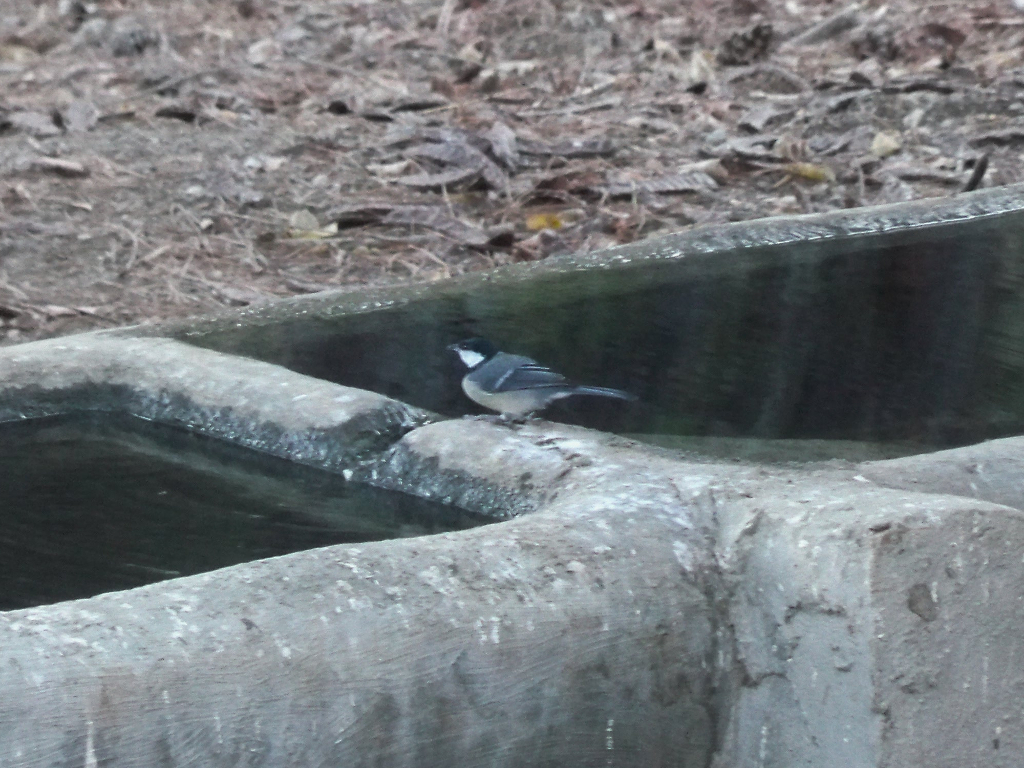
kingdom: Animalia
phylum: Chordata
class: Aves
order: Passeriformes
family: Paridae
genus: Parus
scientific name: Parus major
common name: Great tit
